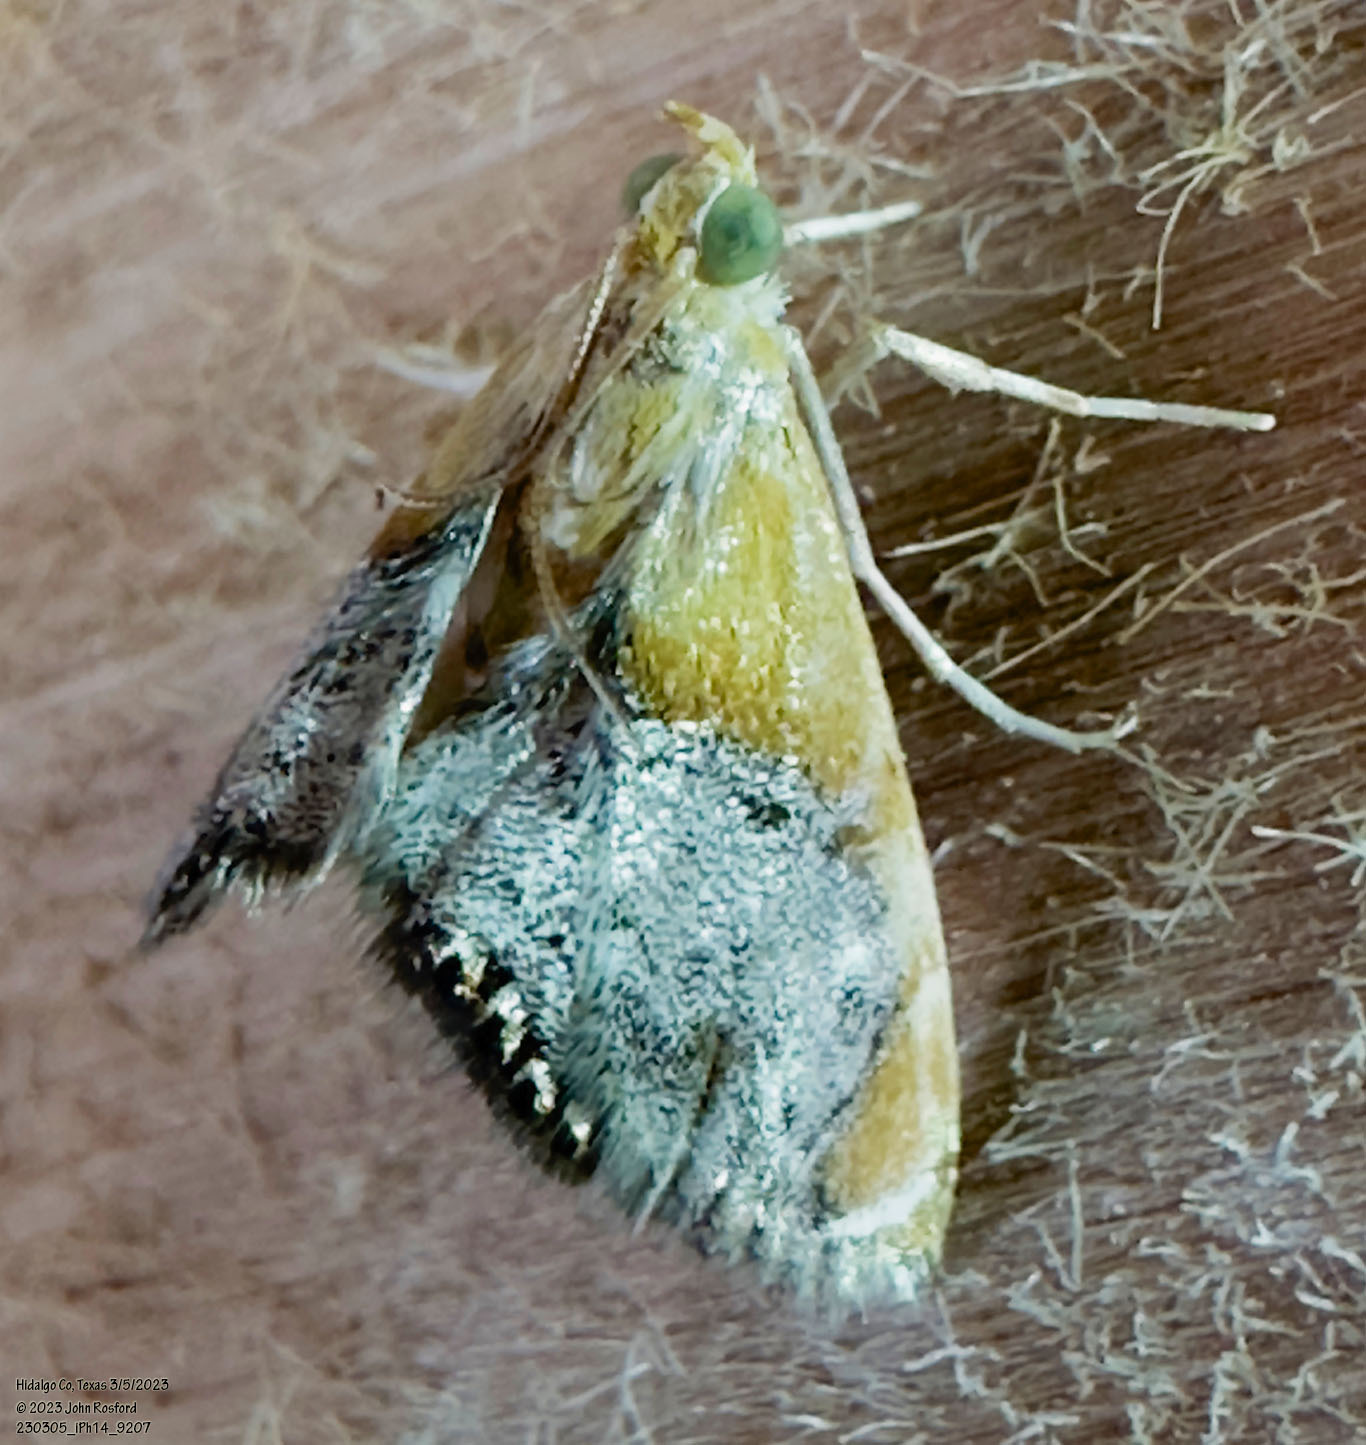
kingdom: Animalia
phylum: Arthropoda
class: Insecta
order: Lepidoptera
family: Crambidae
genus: Chalcoela
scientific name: Chalcoela iphitalis
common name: Sooty-winged chalcoela moth
